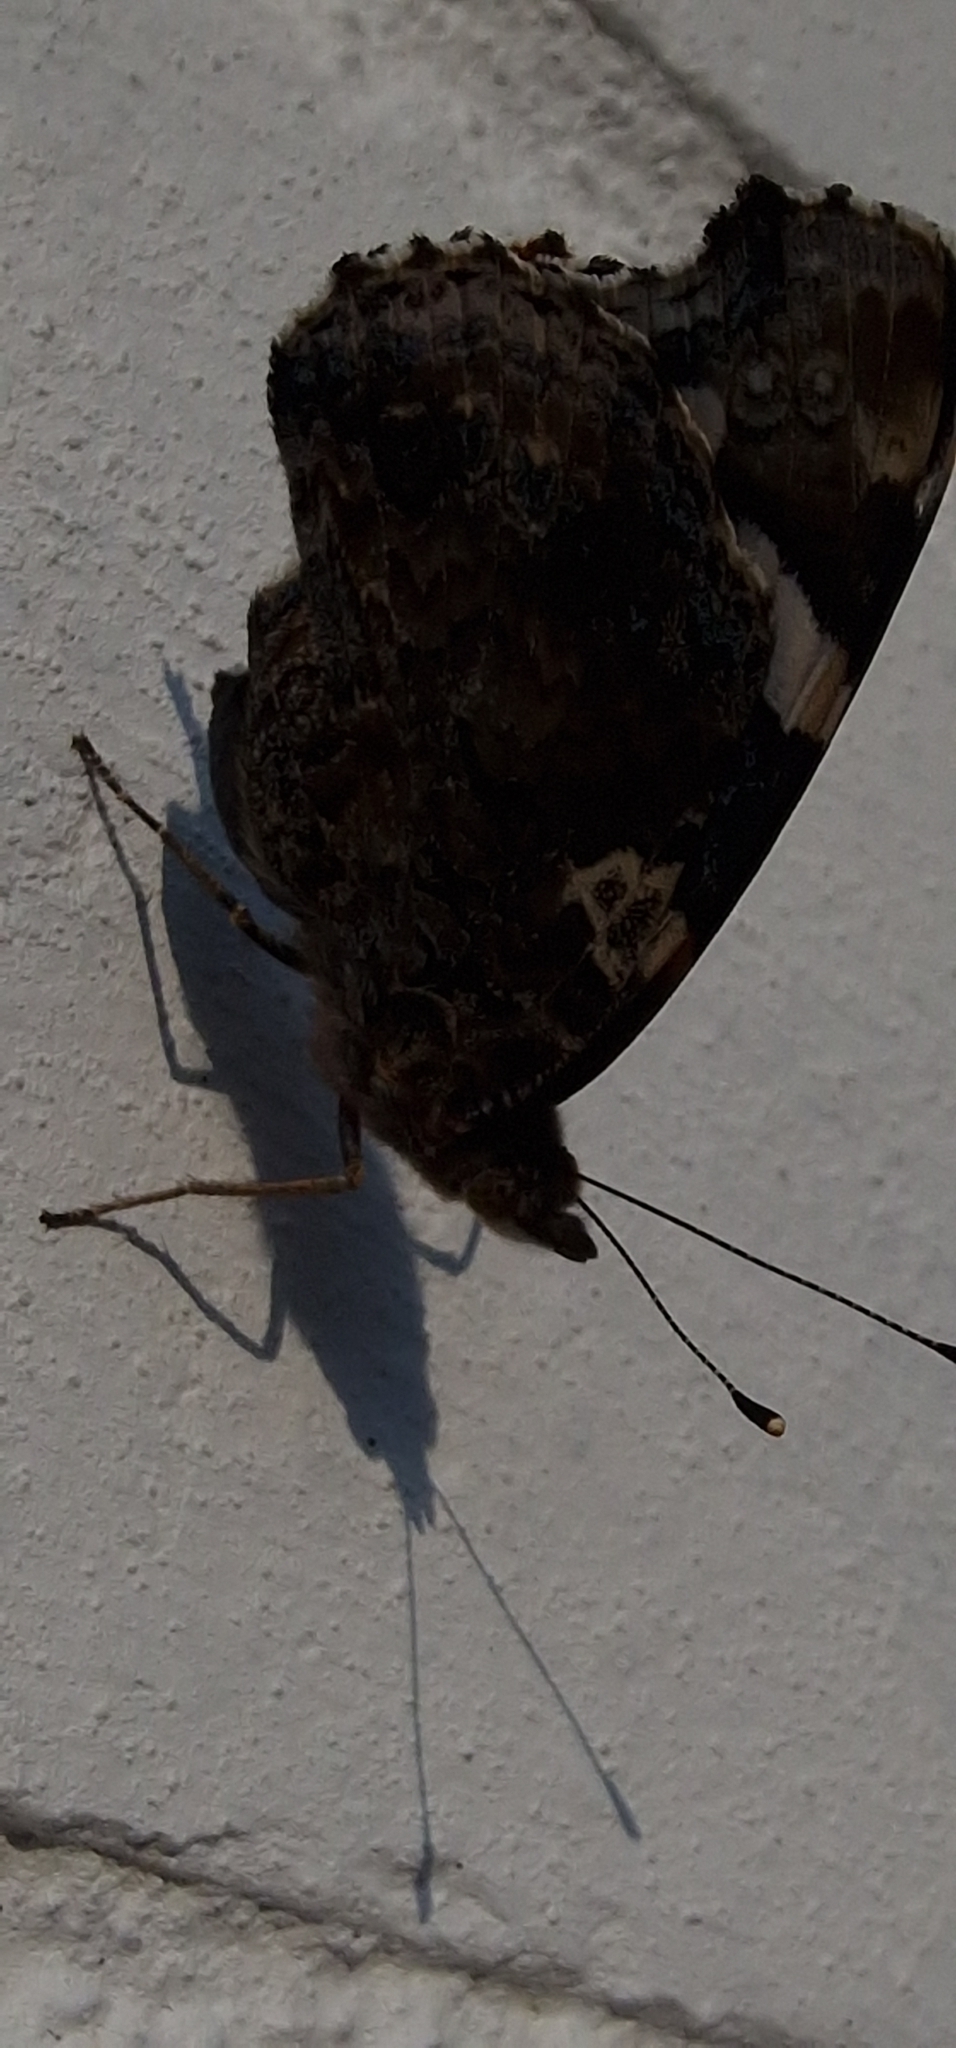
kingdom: Animalia
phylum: Arthropoda
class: Insecta
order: Lepidoptera
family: Nymphalidae
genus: Vanessa
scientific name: Vanessa atalanta
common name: Red admiral
